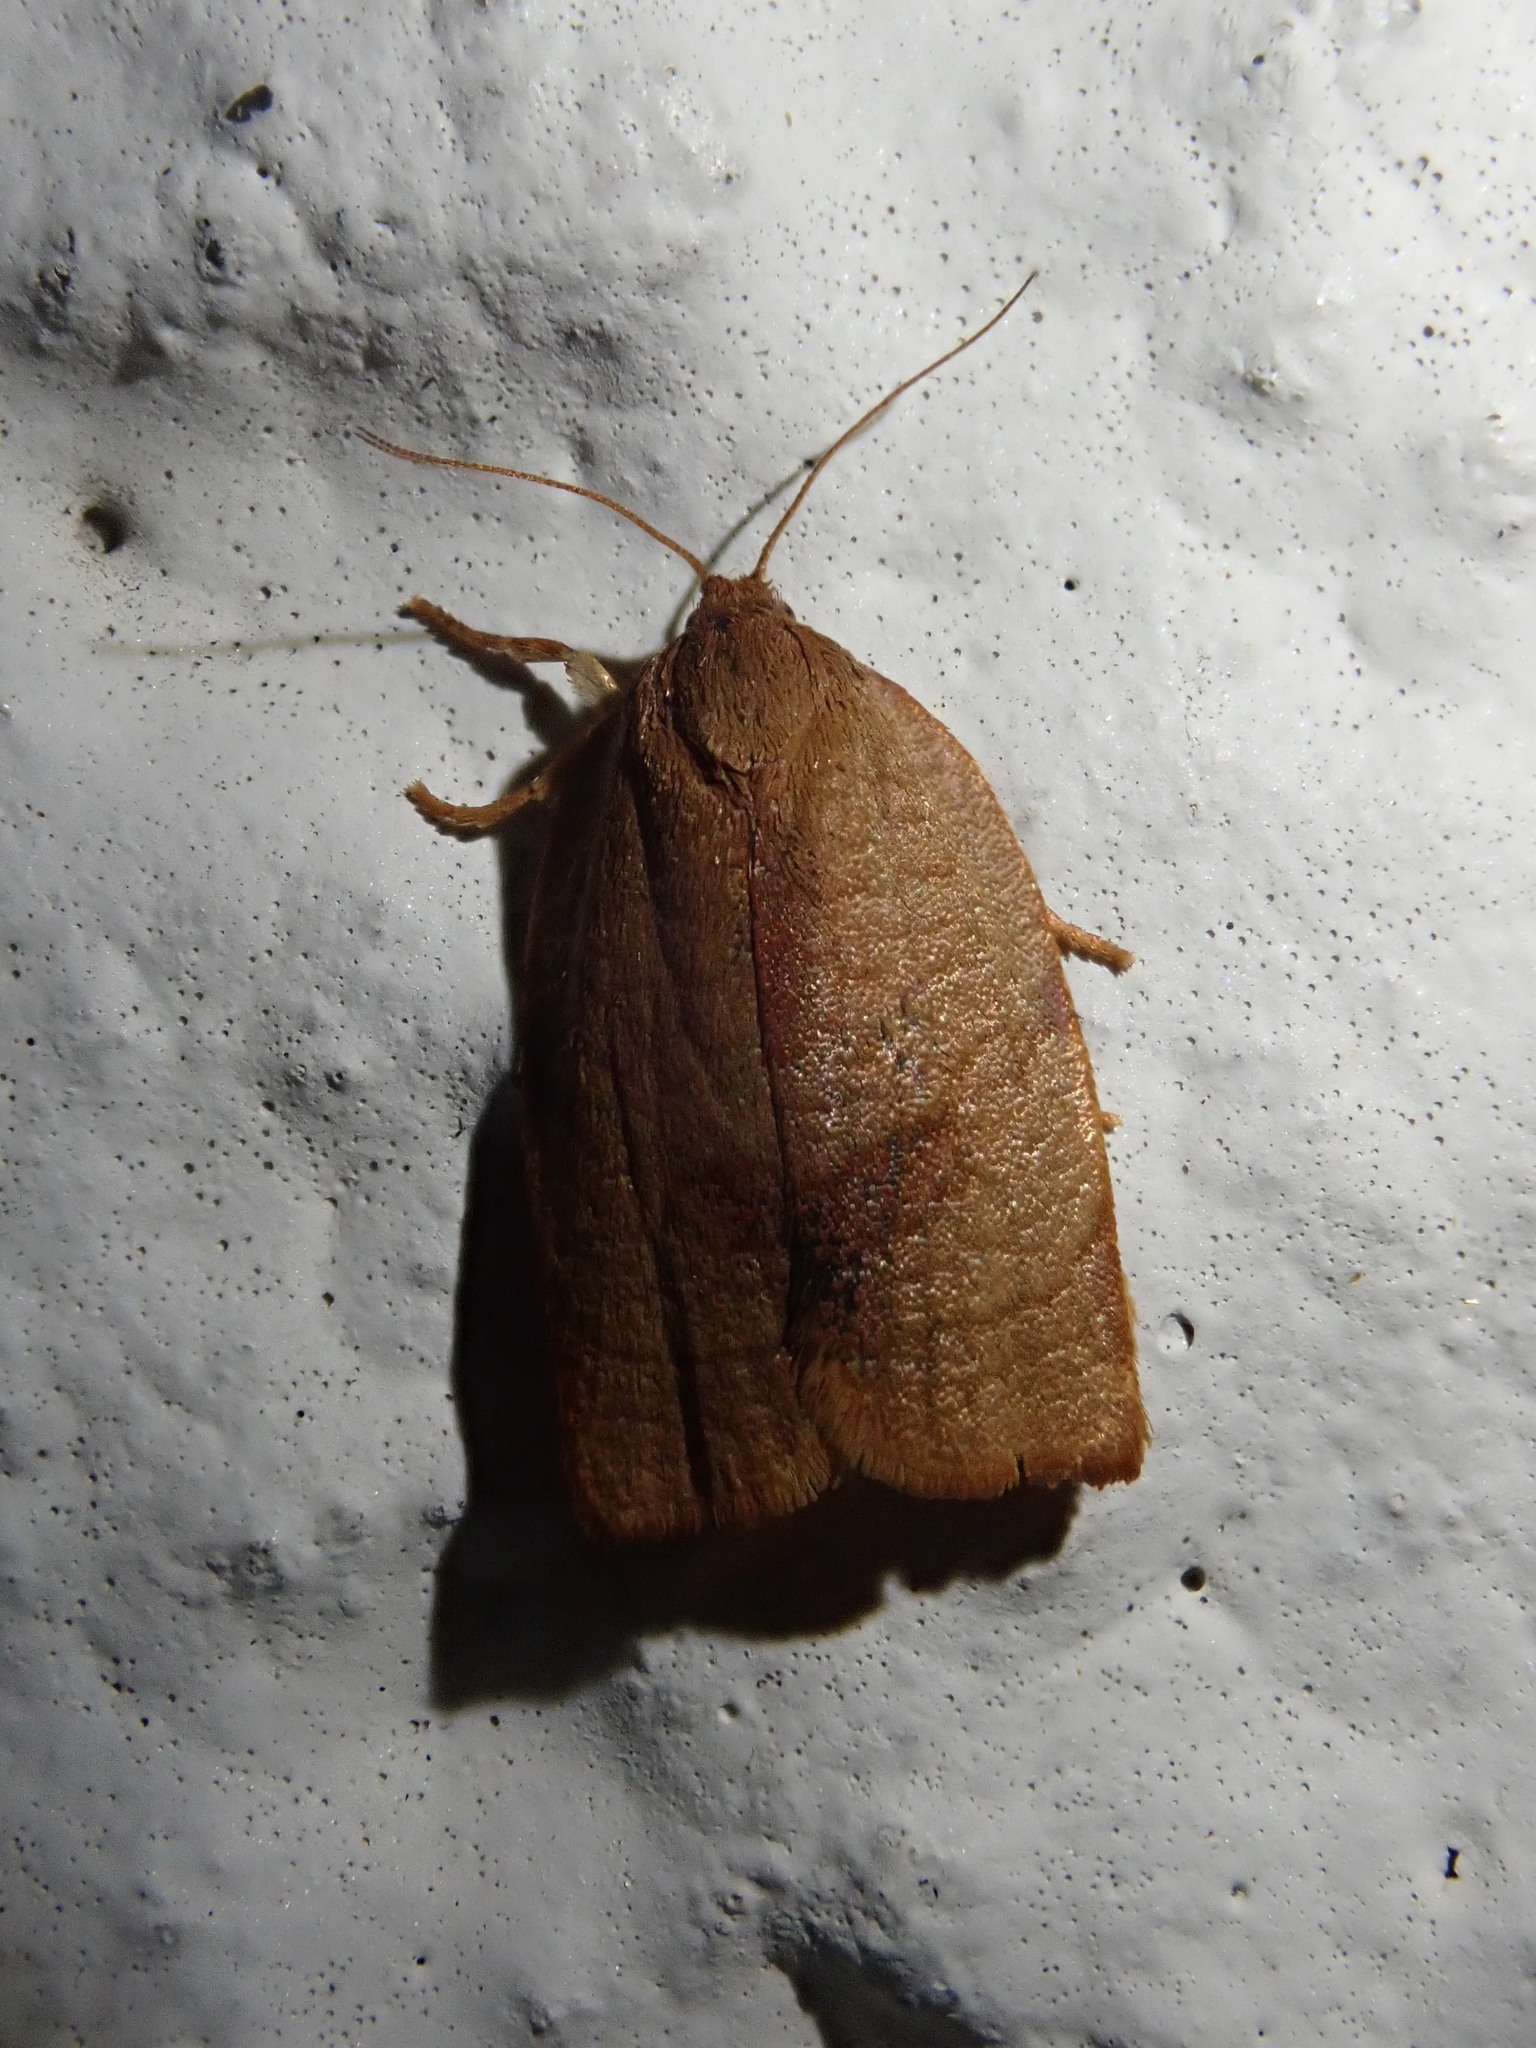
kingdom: Animalia
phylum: Arthropoda
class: Insecta
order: Lepidoptera
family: Tortricidae
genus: Cacoecimorpha
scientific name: Cacoecimorpha pronubana
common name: Carnation tortrix
